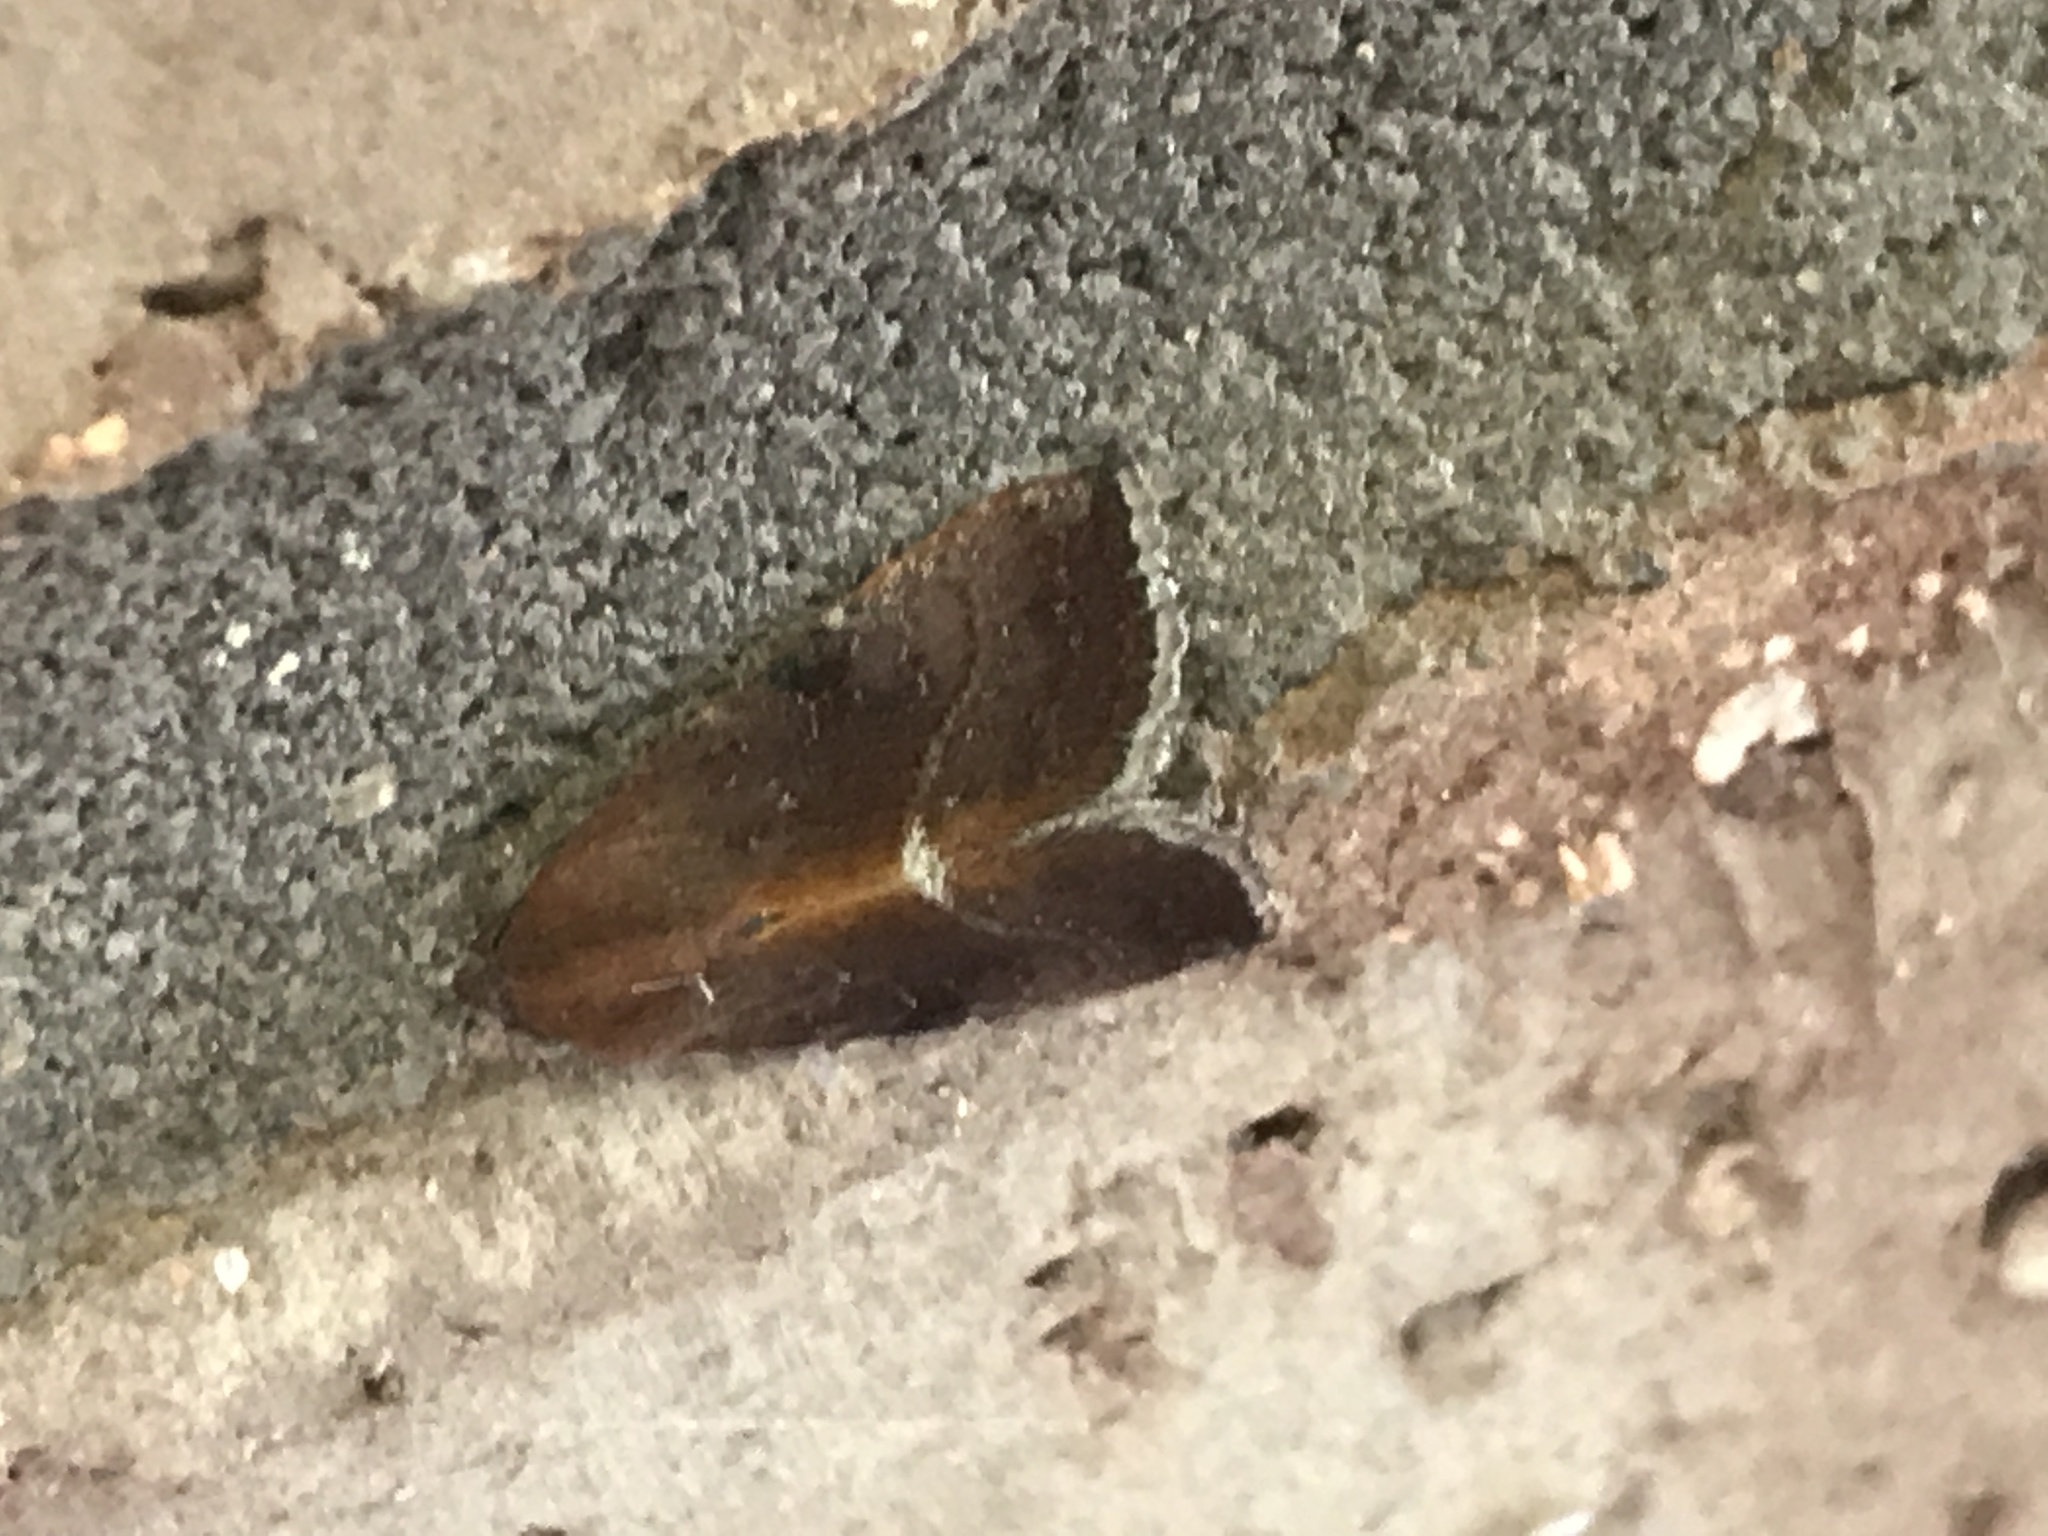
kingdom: Animalia
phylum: Arthropoda
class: Insecta
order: Lepidoptera
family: Noctuidae
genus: Galgula
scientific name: Galgula partita
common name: Wedgeling
